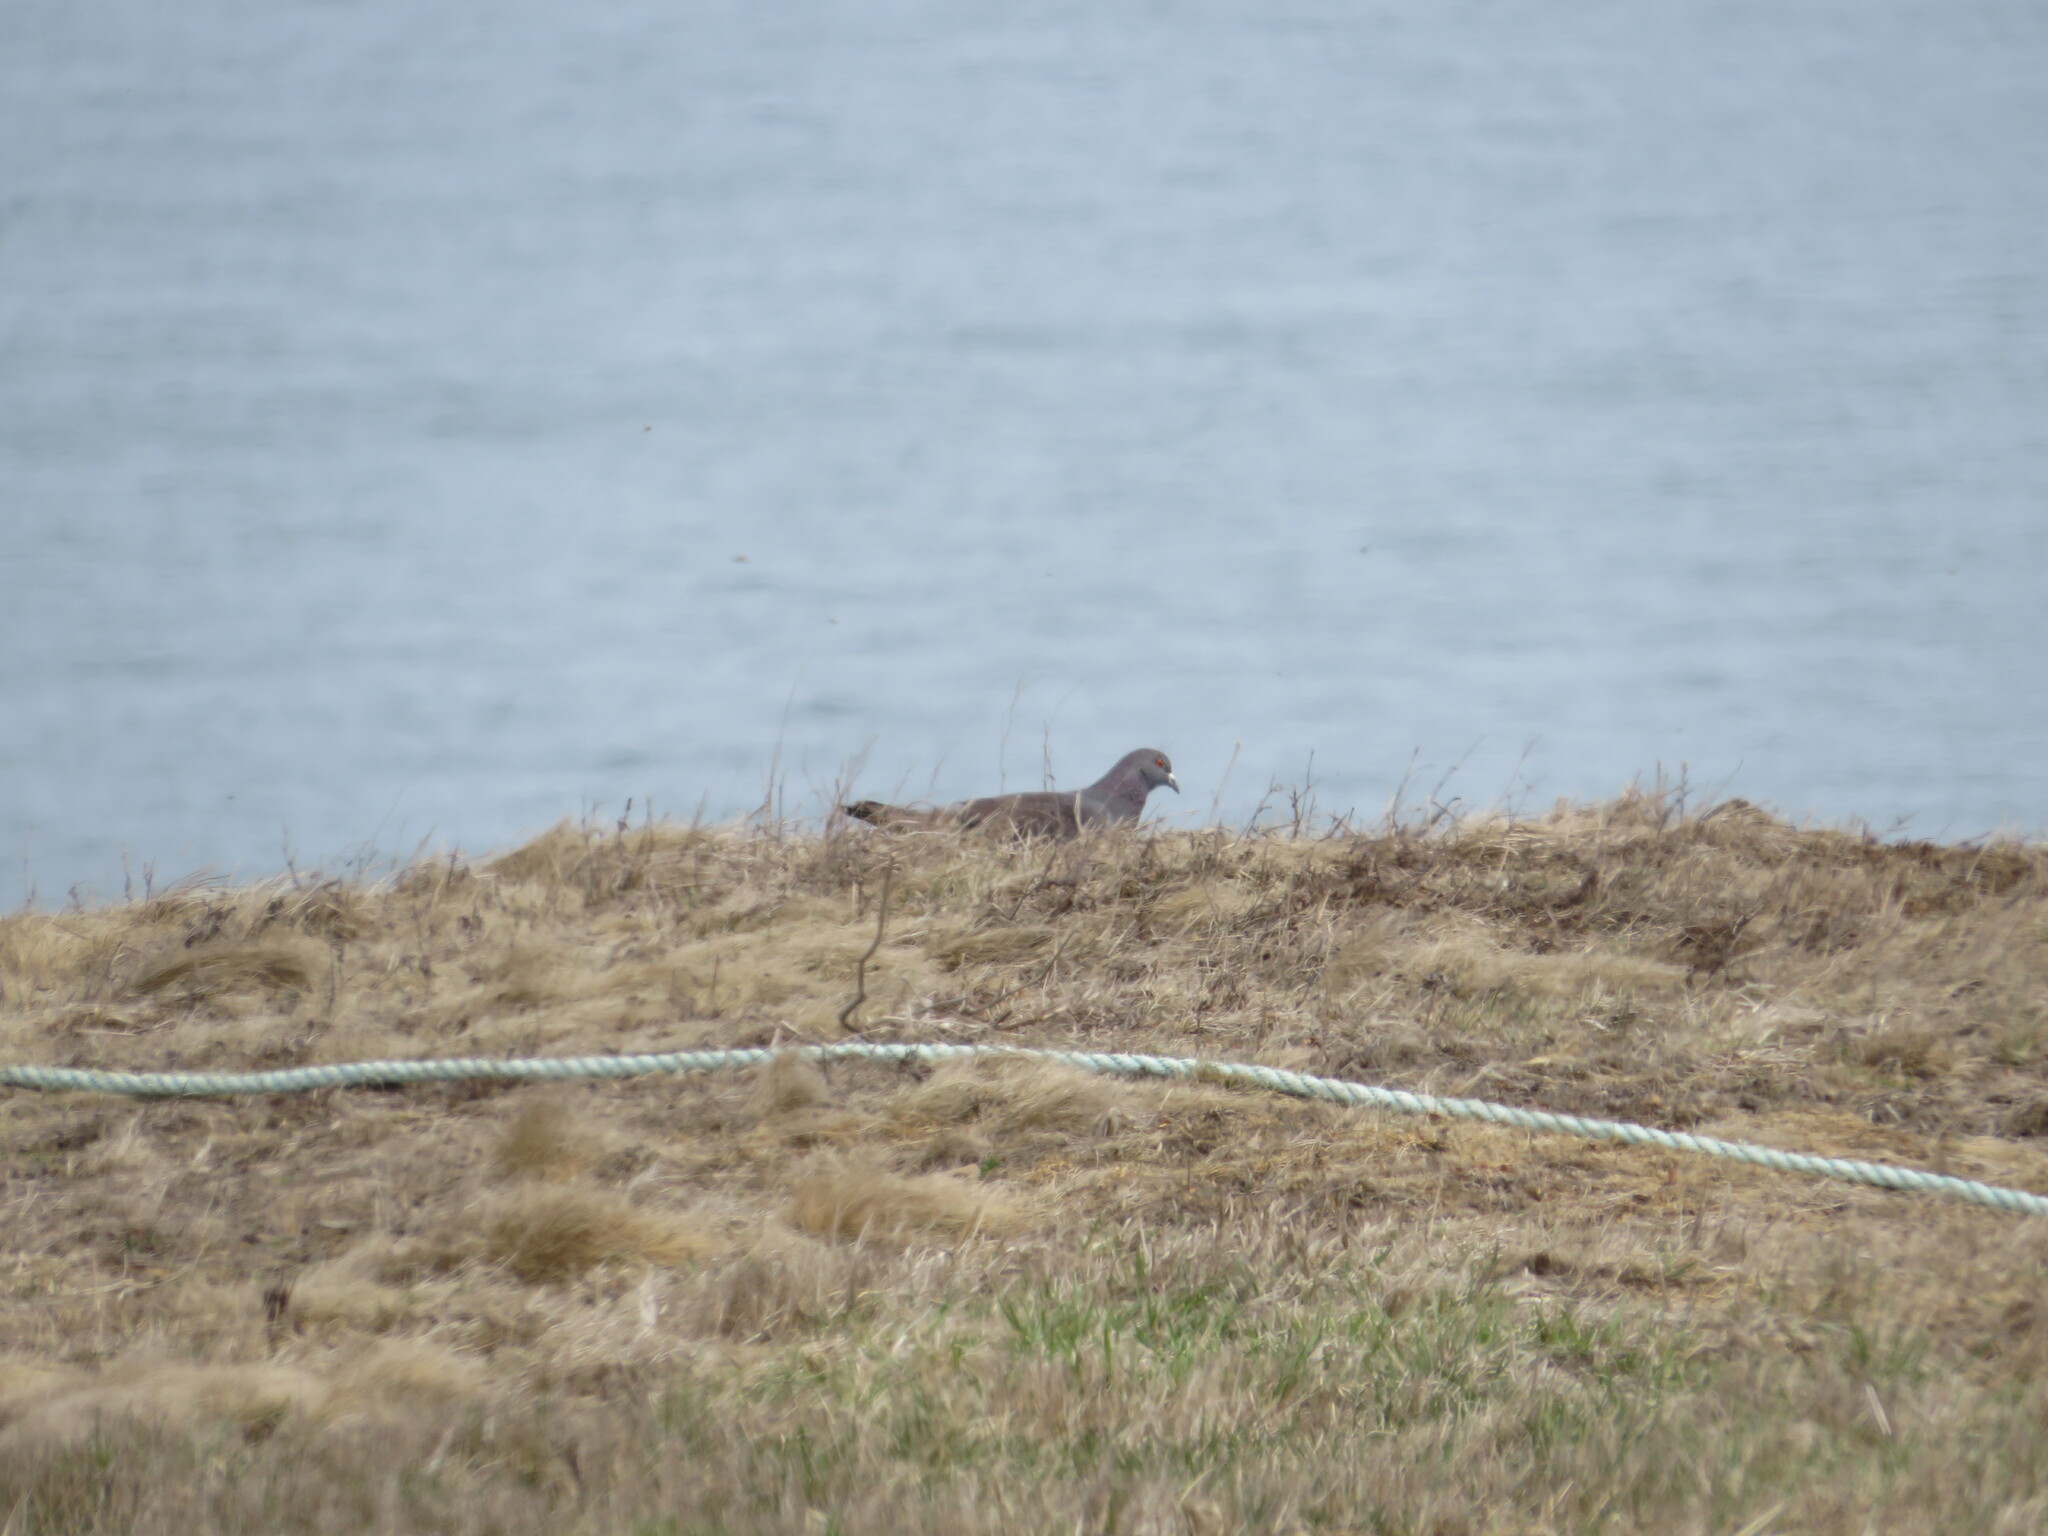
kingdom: Animalia
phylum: Chordata
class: Aves
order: Columbiformes
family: Columbidae
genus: Columba
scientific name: Columba livia
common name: Rock pigeon
